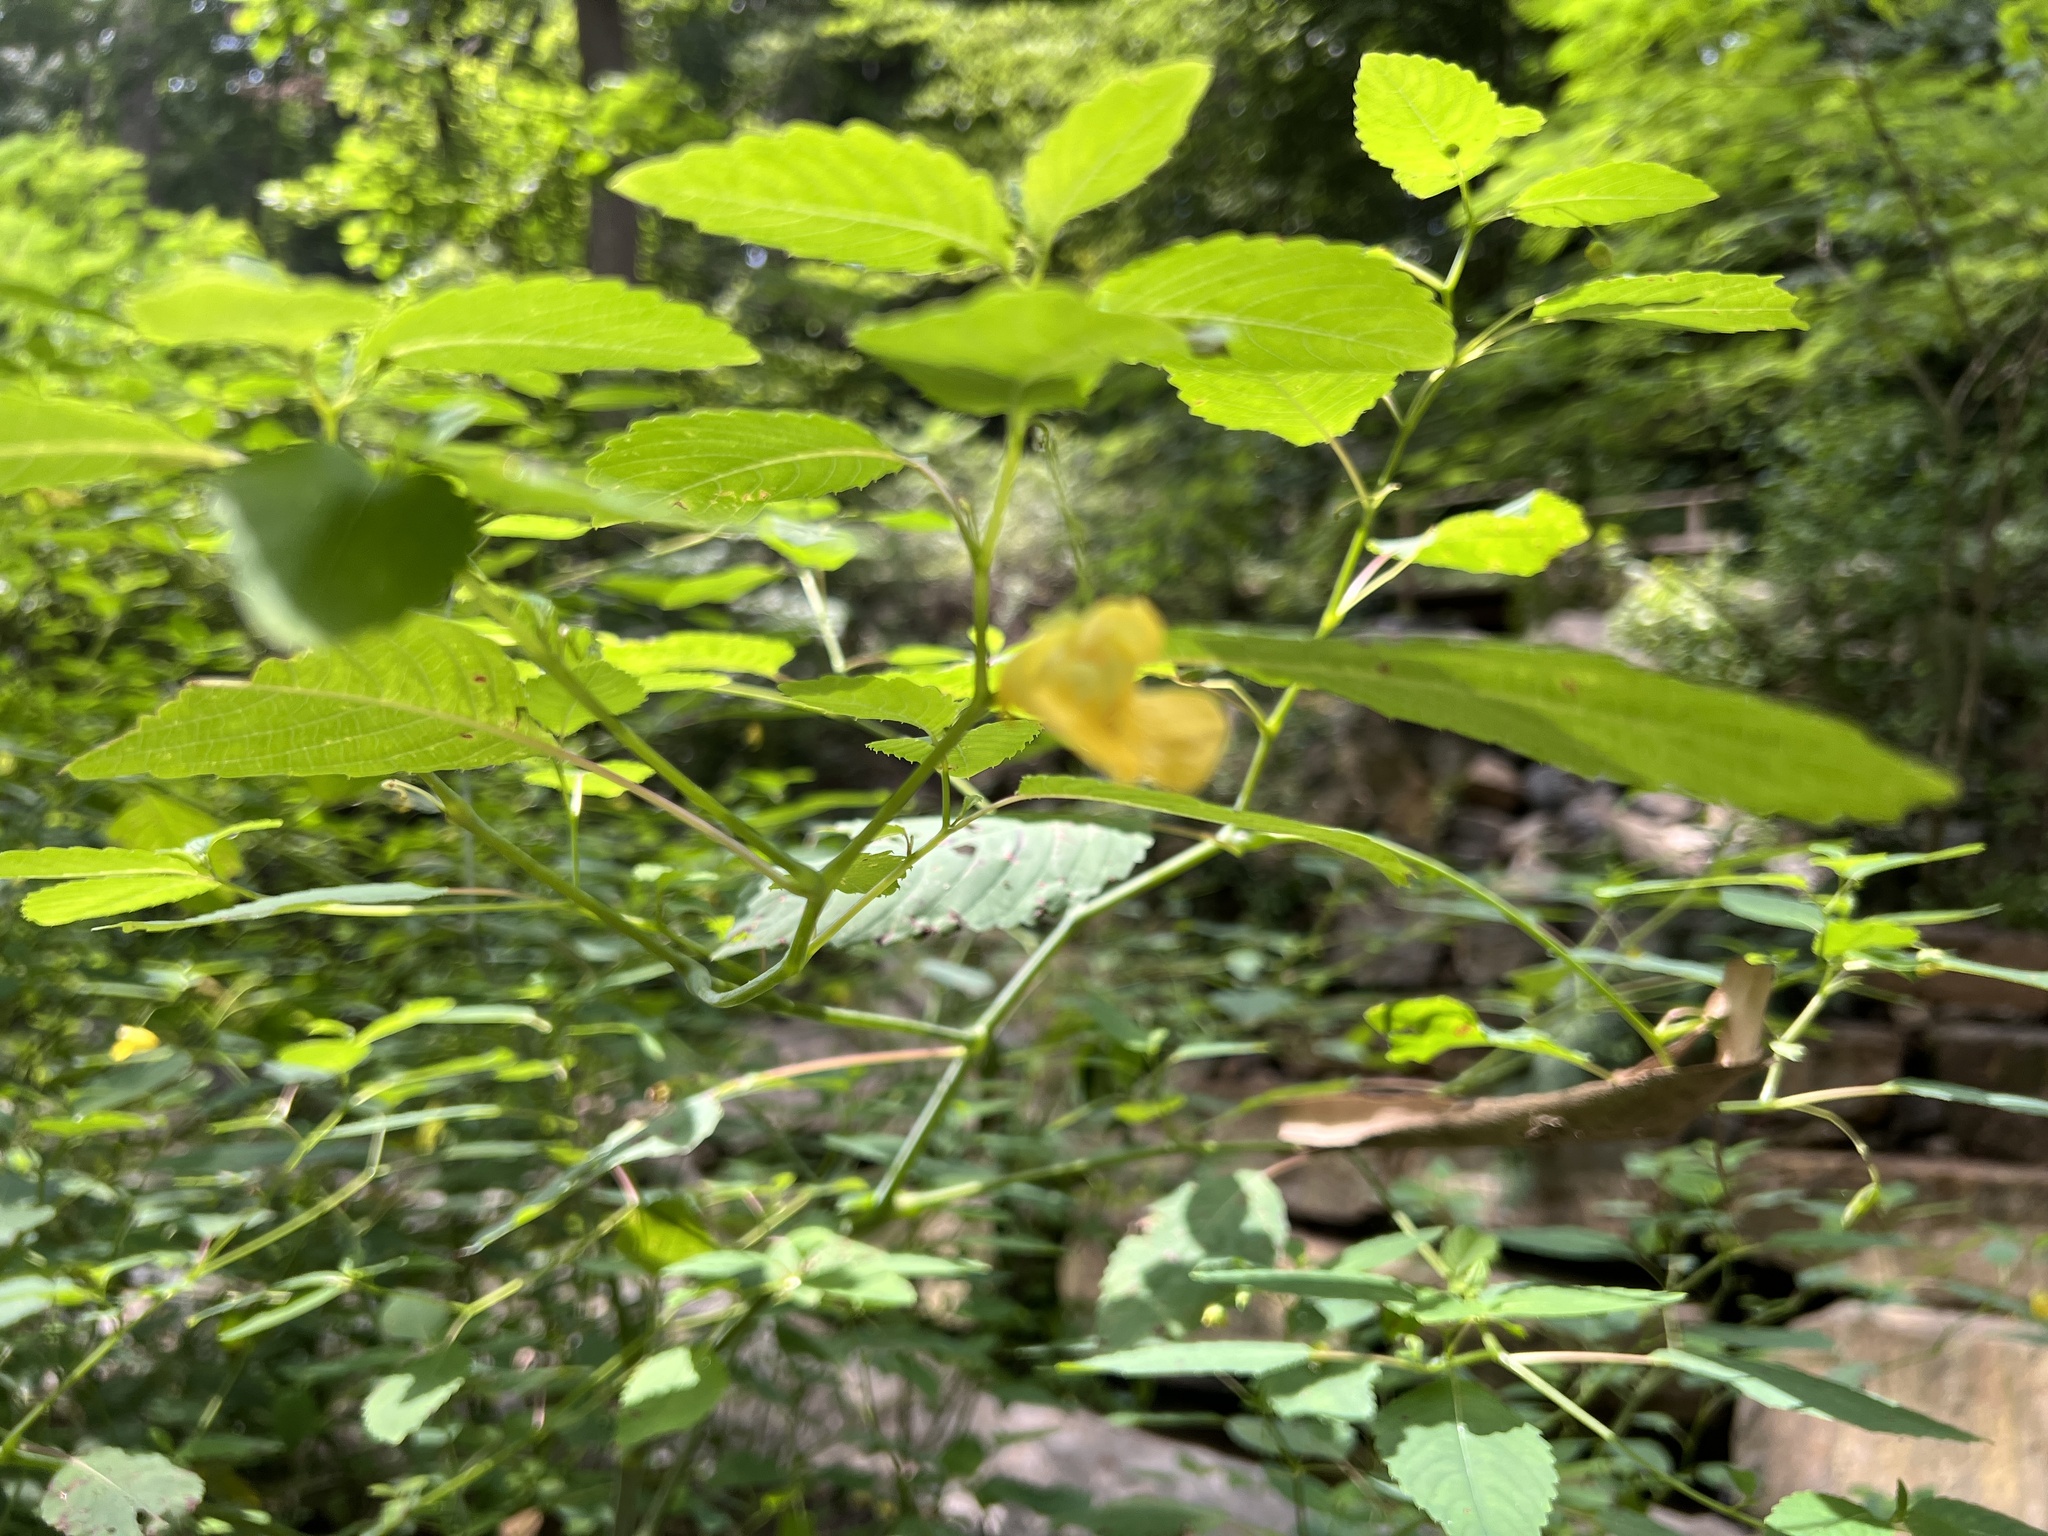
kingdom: Plantae
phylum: Tracheophyta
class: Magnoliopsida
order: Ericales
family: Balsaminaceae
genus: Impatiens
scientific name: Impatiens pallida
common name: Pale snapweed
